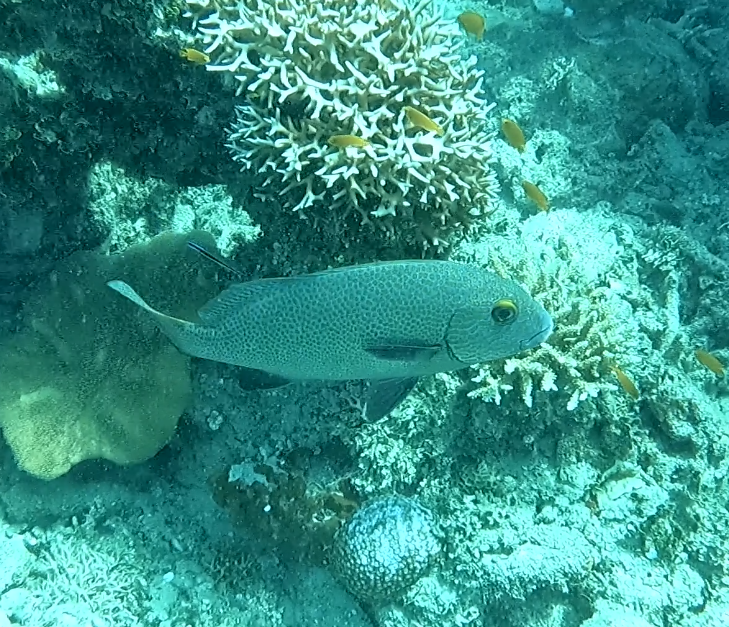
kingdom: Animalia
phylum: Chordata
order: Perciformes
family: Haemulidae
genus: Plectorhinchus
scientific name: Plectorhinchus flavomaculatus
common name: Netted sweetlips
